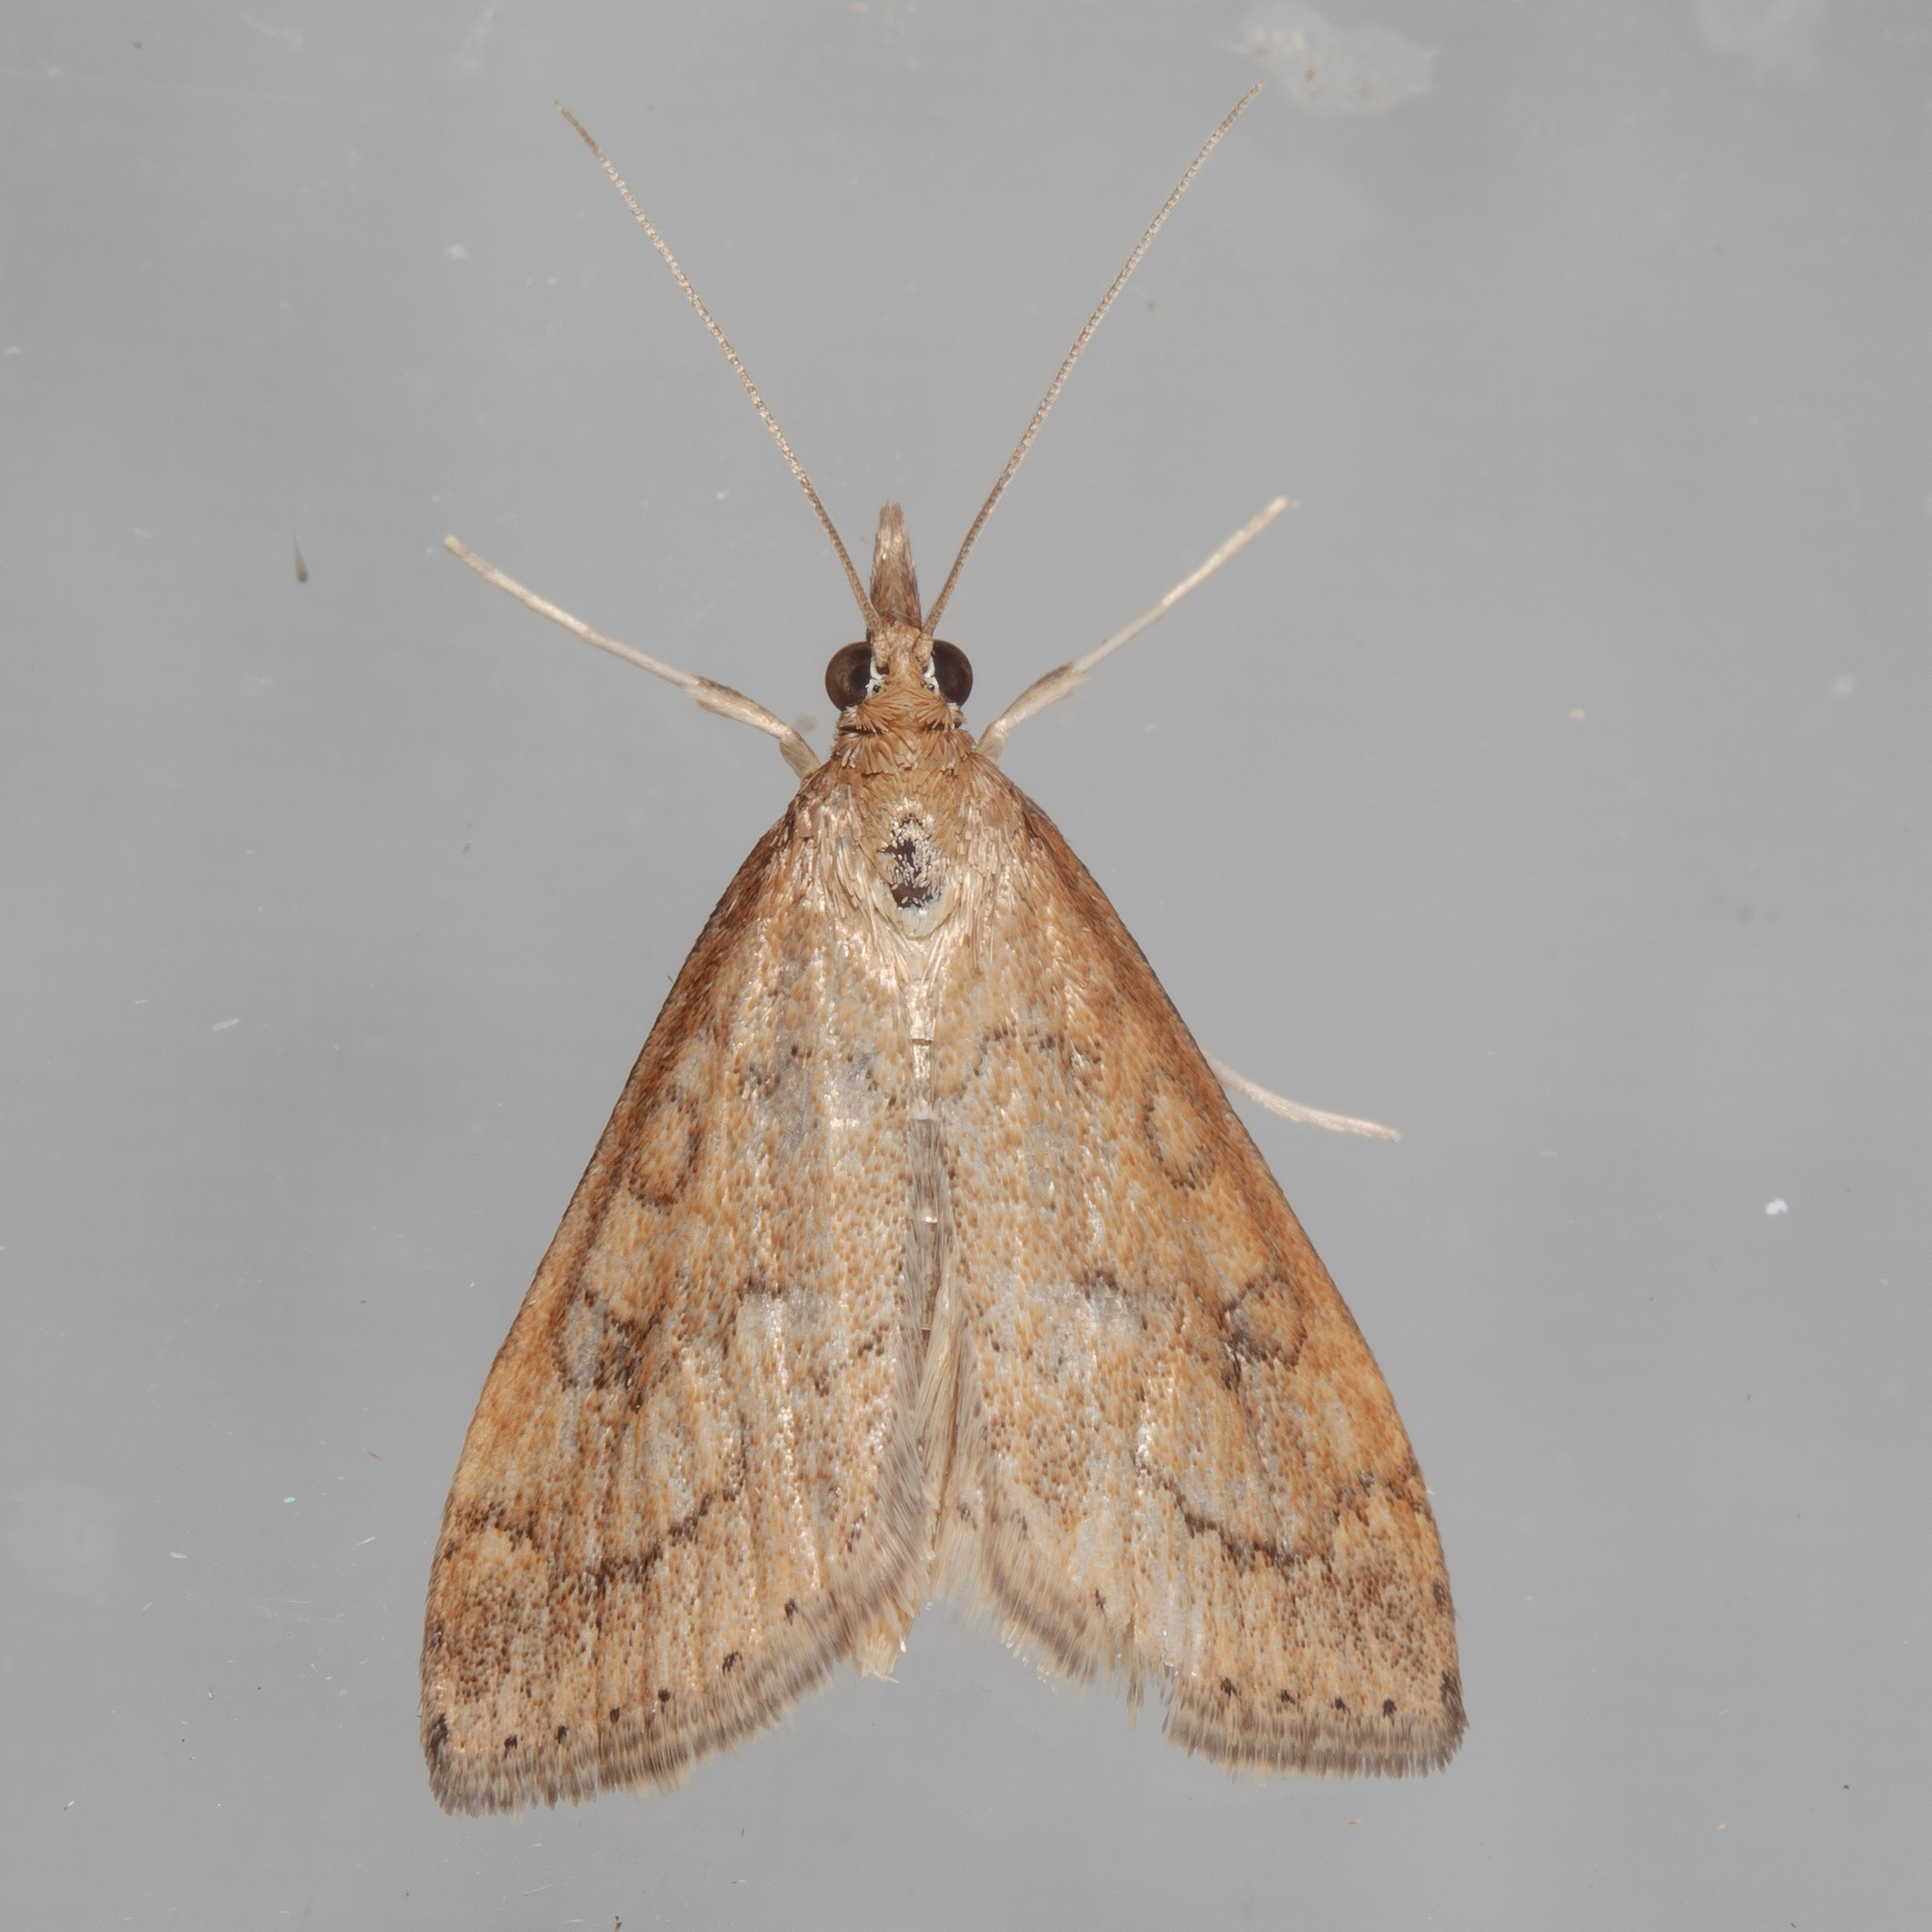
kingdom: Animalia
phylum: Arthropoda
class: Insecta
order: Lepidoptera
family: Crambidae
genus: Udea
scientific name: Udea rubigalis
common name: Celery leaftier moth
